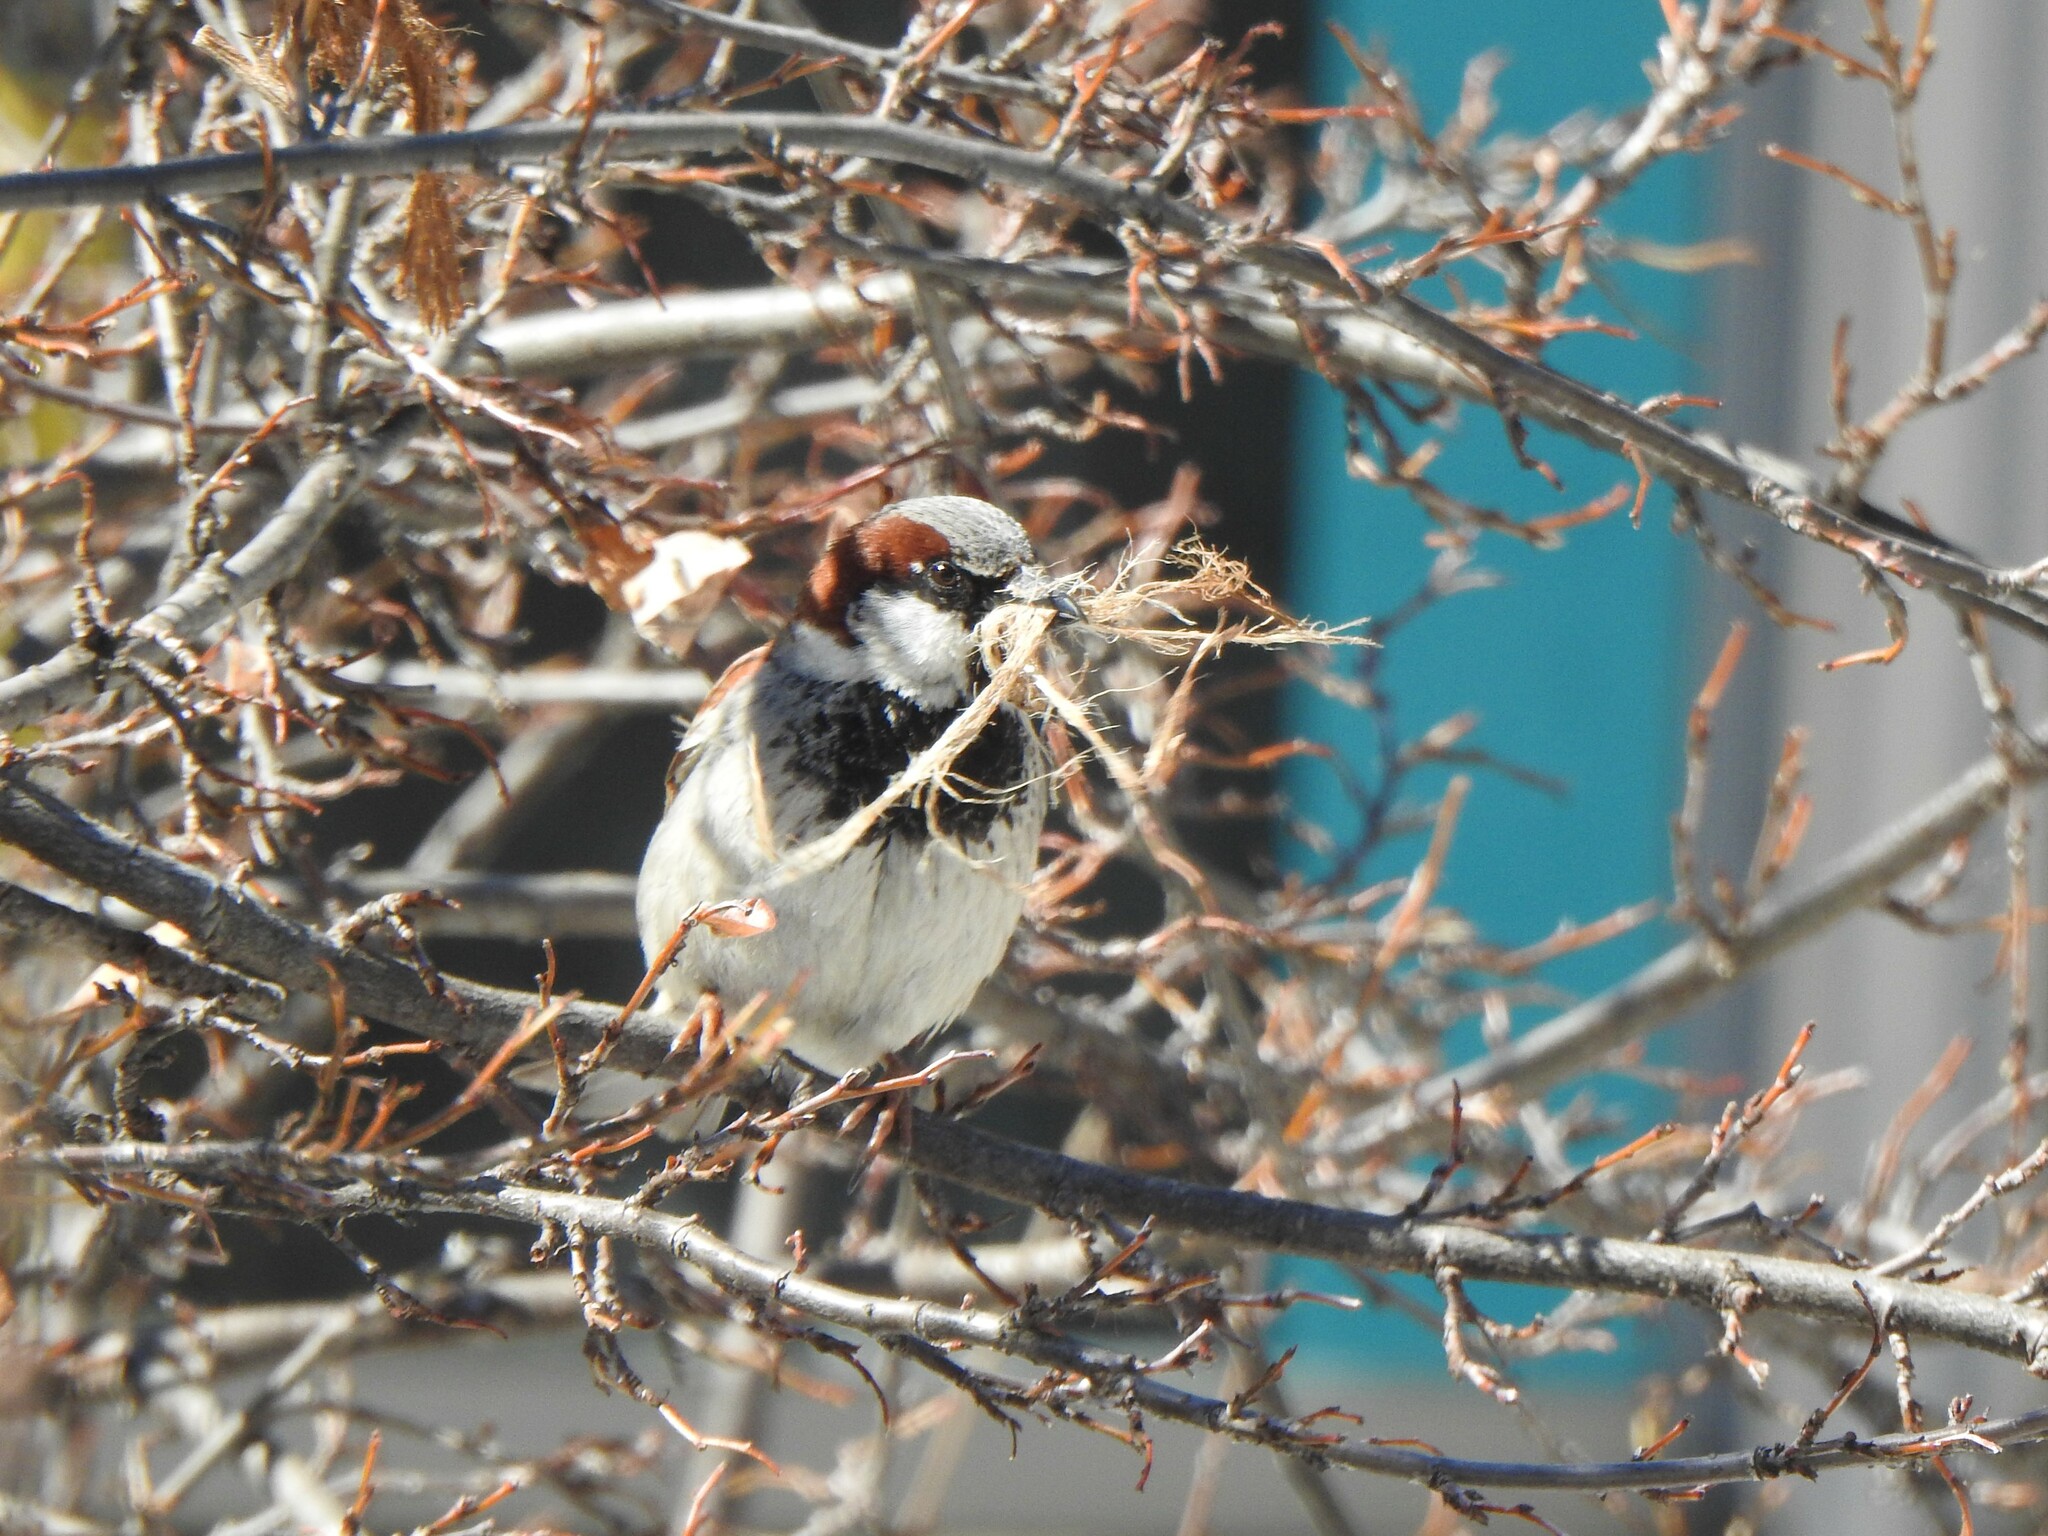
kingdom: Animalia
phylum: Chordata
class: Aves
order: Passeriformes
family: Passeridae
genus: Passer
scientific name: Passer domesticus
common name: House sparrow
